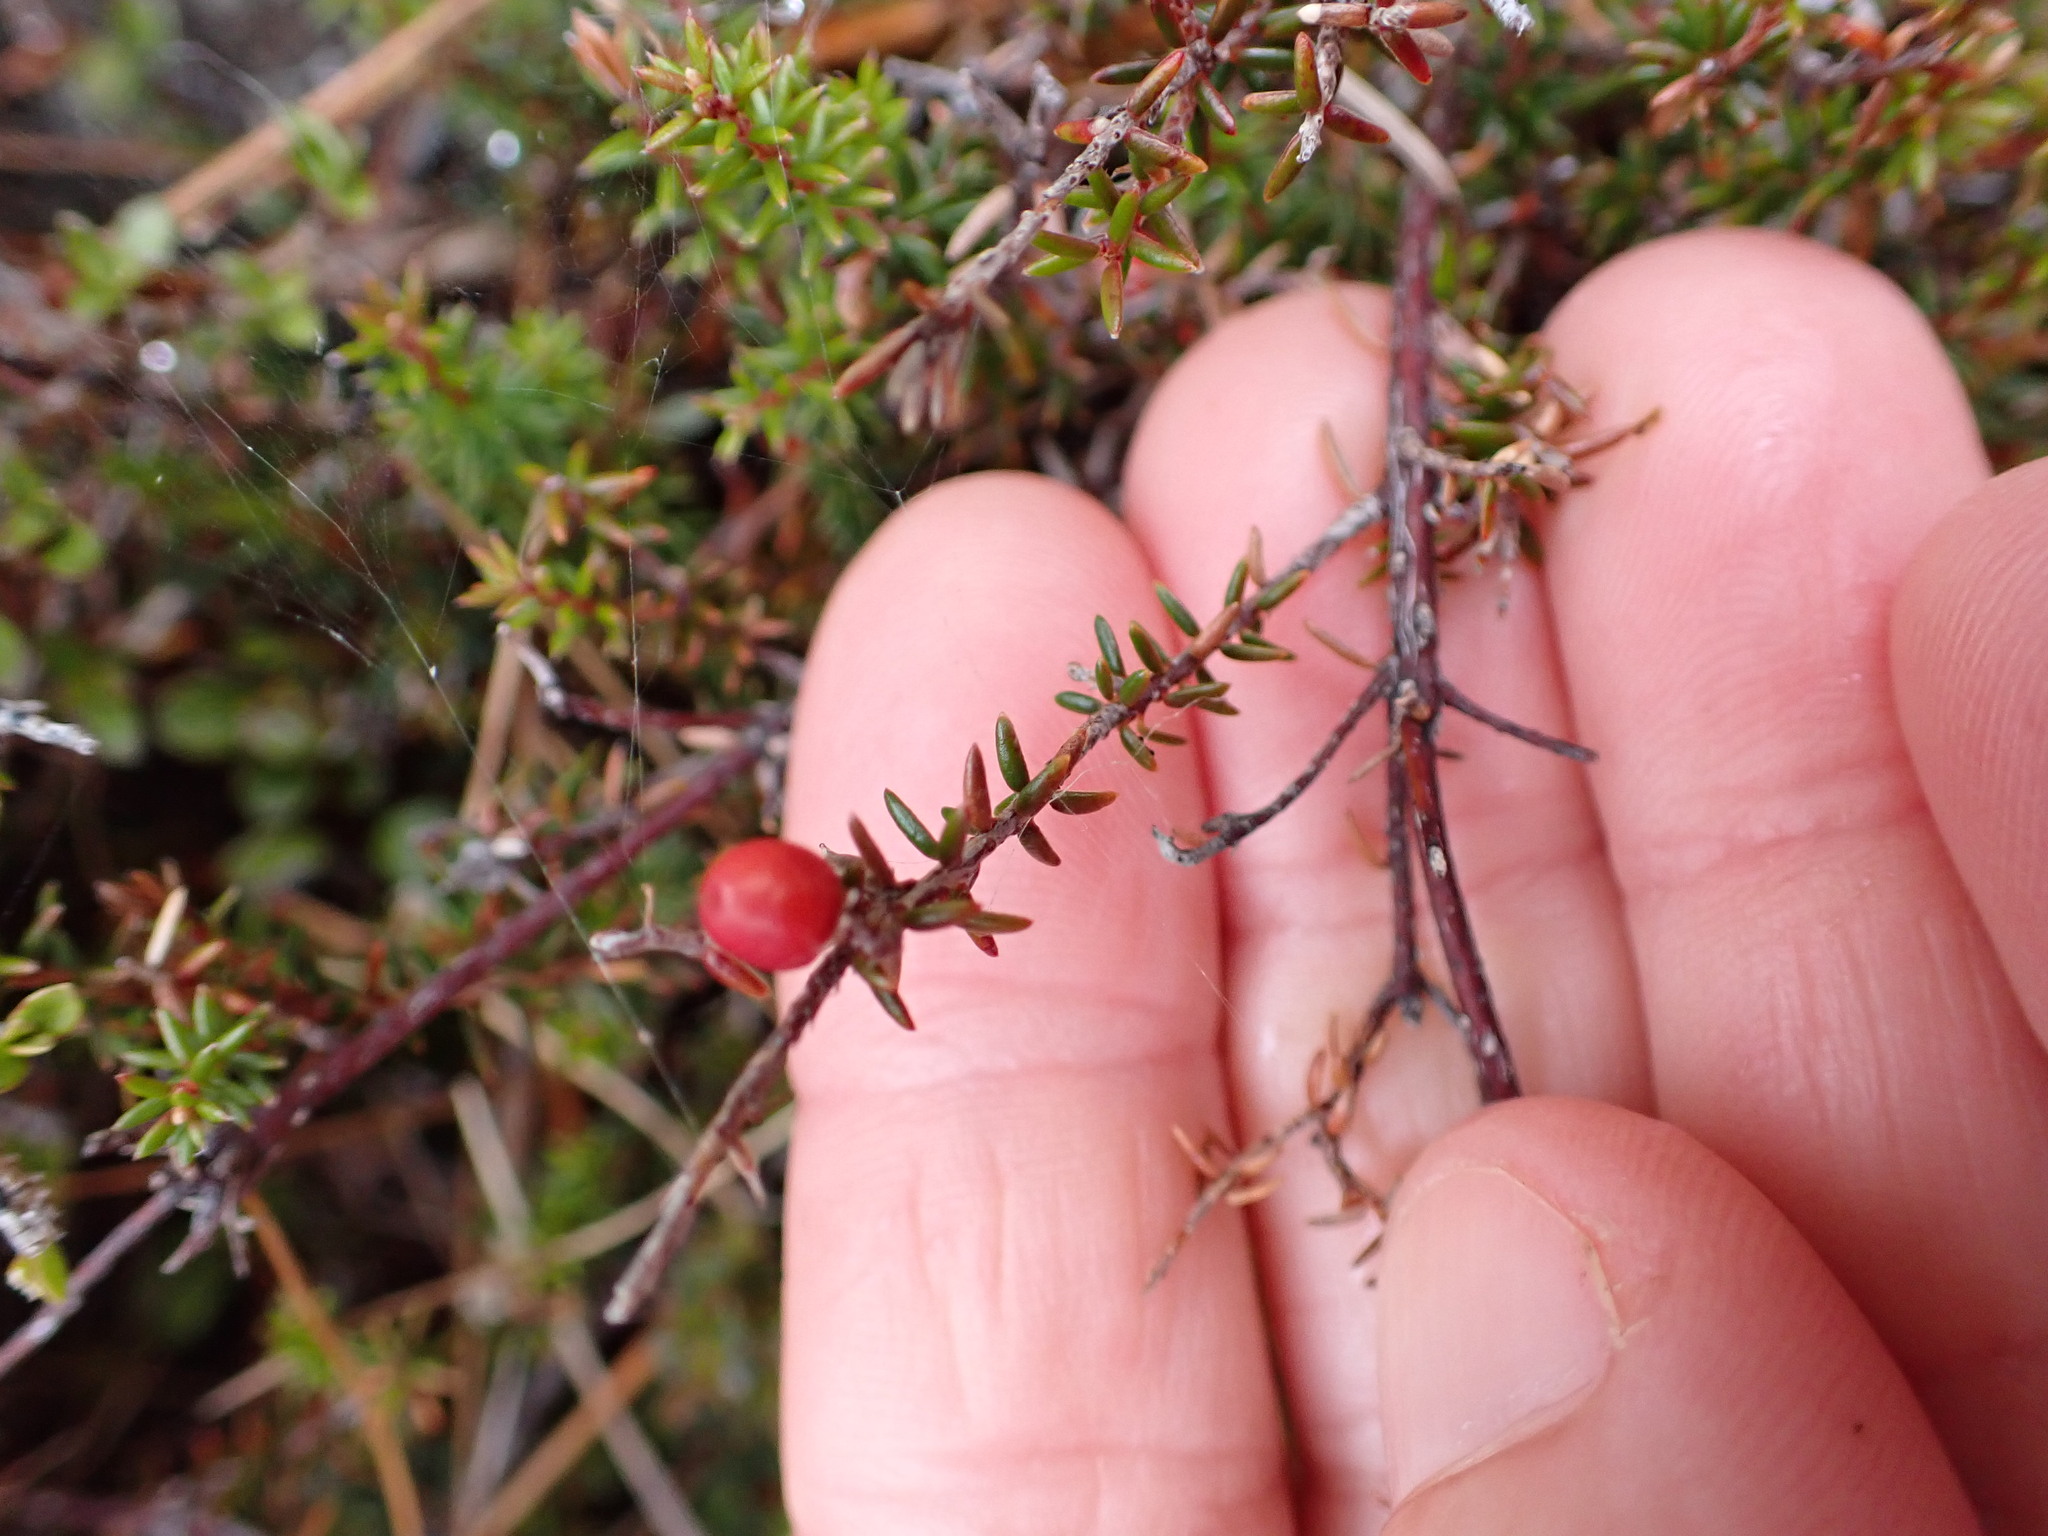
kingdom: Plantae
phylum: Tracheophyta
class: Magnoliopsida
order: Ericales
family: Ericaceae
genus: Androstoma
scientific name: Androstoma empetrifolia
